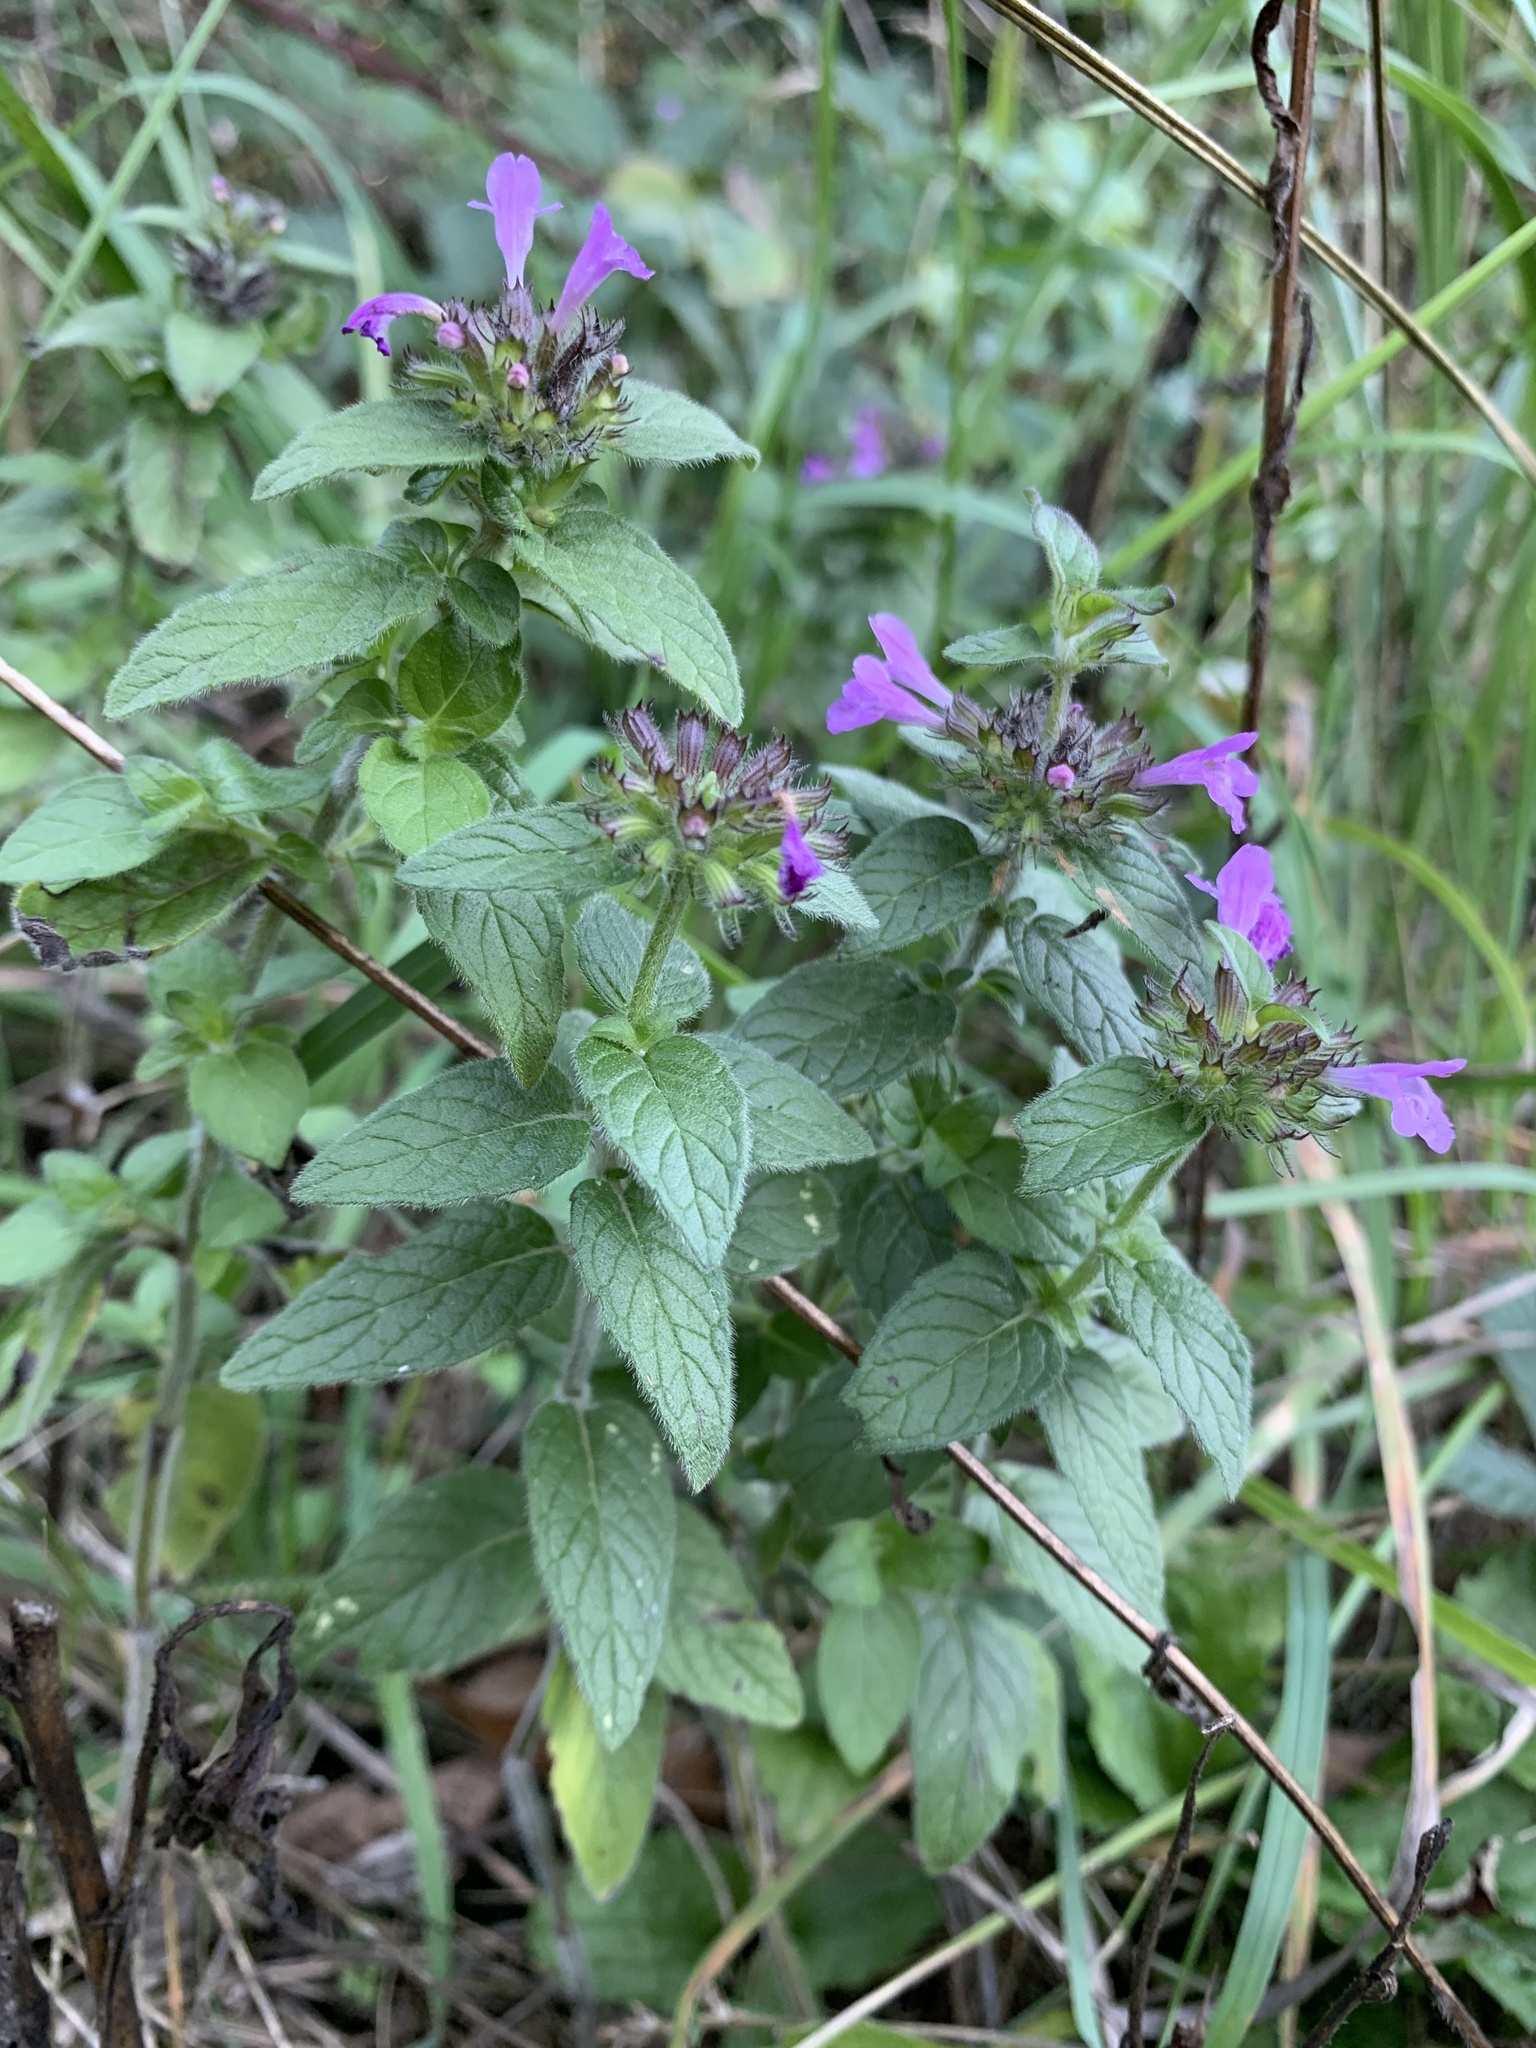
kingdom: Plantae
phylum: Tracheophyta
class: Magnoliopsida
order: Lamiales
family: Lamiaceae
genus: Clinopodium
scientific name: Clinopodium vulgare
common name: Wild basil
